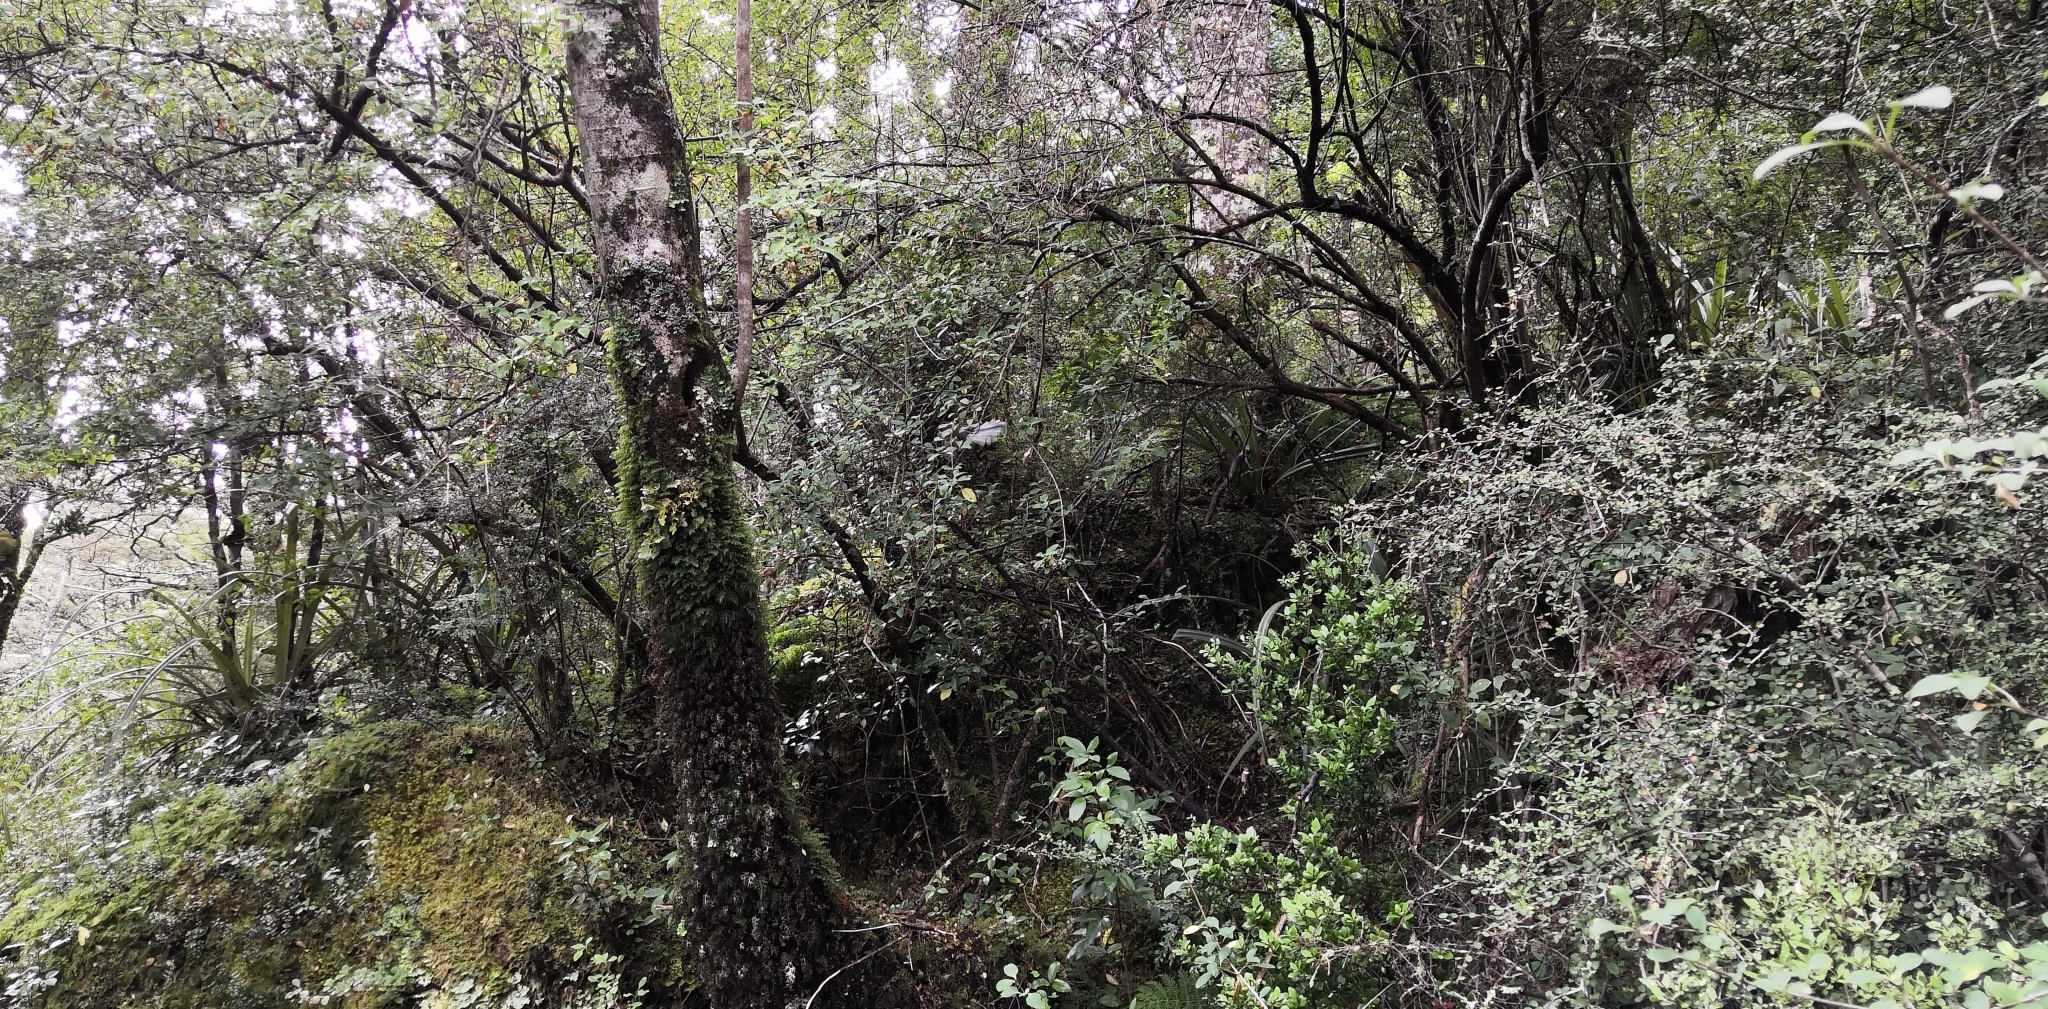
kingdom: Animalia
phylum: Chordata
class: Aves
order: Passeriformes
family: Rhipiduridae
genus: Rhipidura
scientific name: Rhipidura fuliginosa
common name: New zealand fantail
